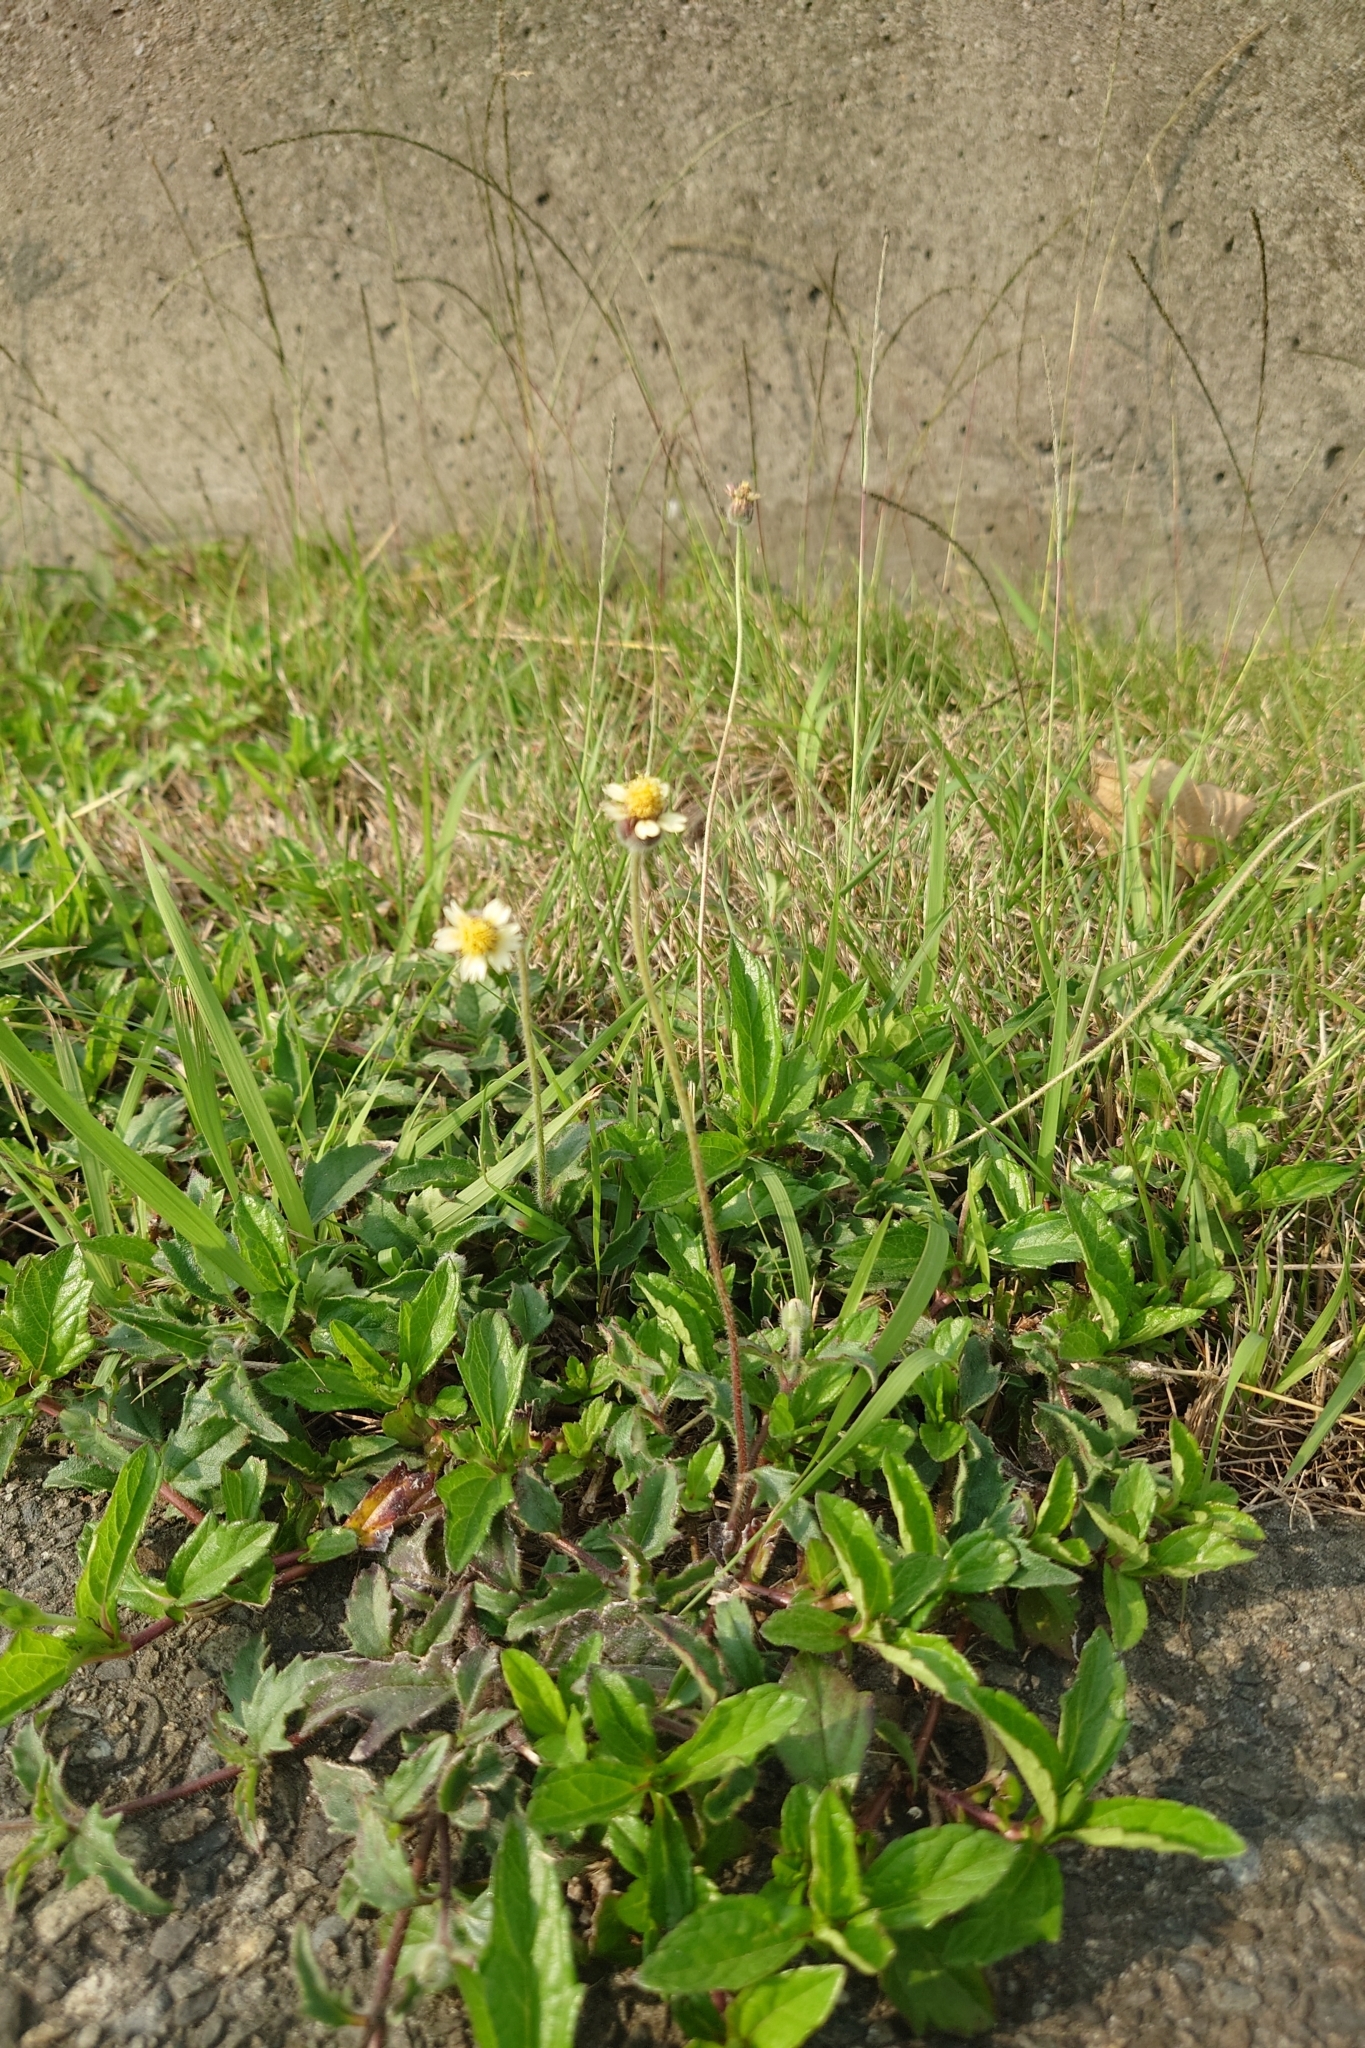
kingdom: Plantae
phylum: Tracheophyta
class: Magnoliopsida
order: Asterales
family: Asteraceae
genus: Tridax
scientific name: Tridax procumbens
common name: Coatbuttons
